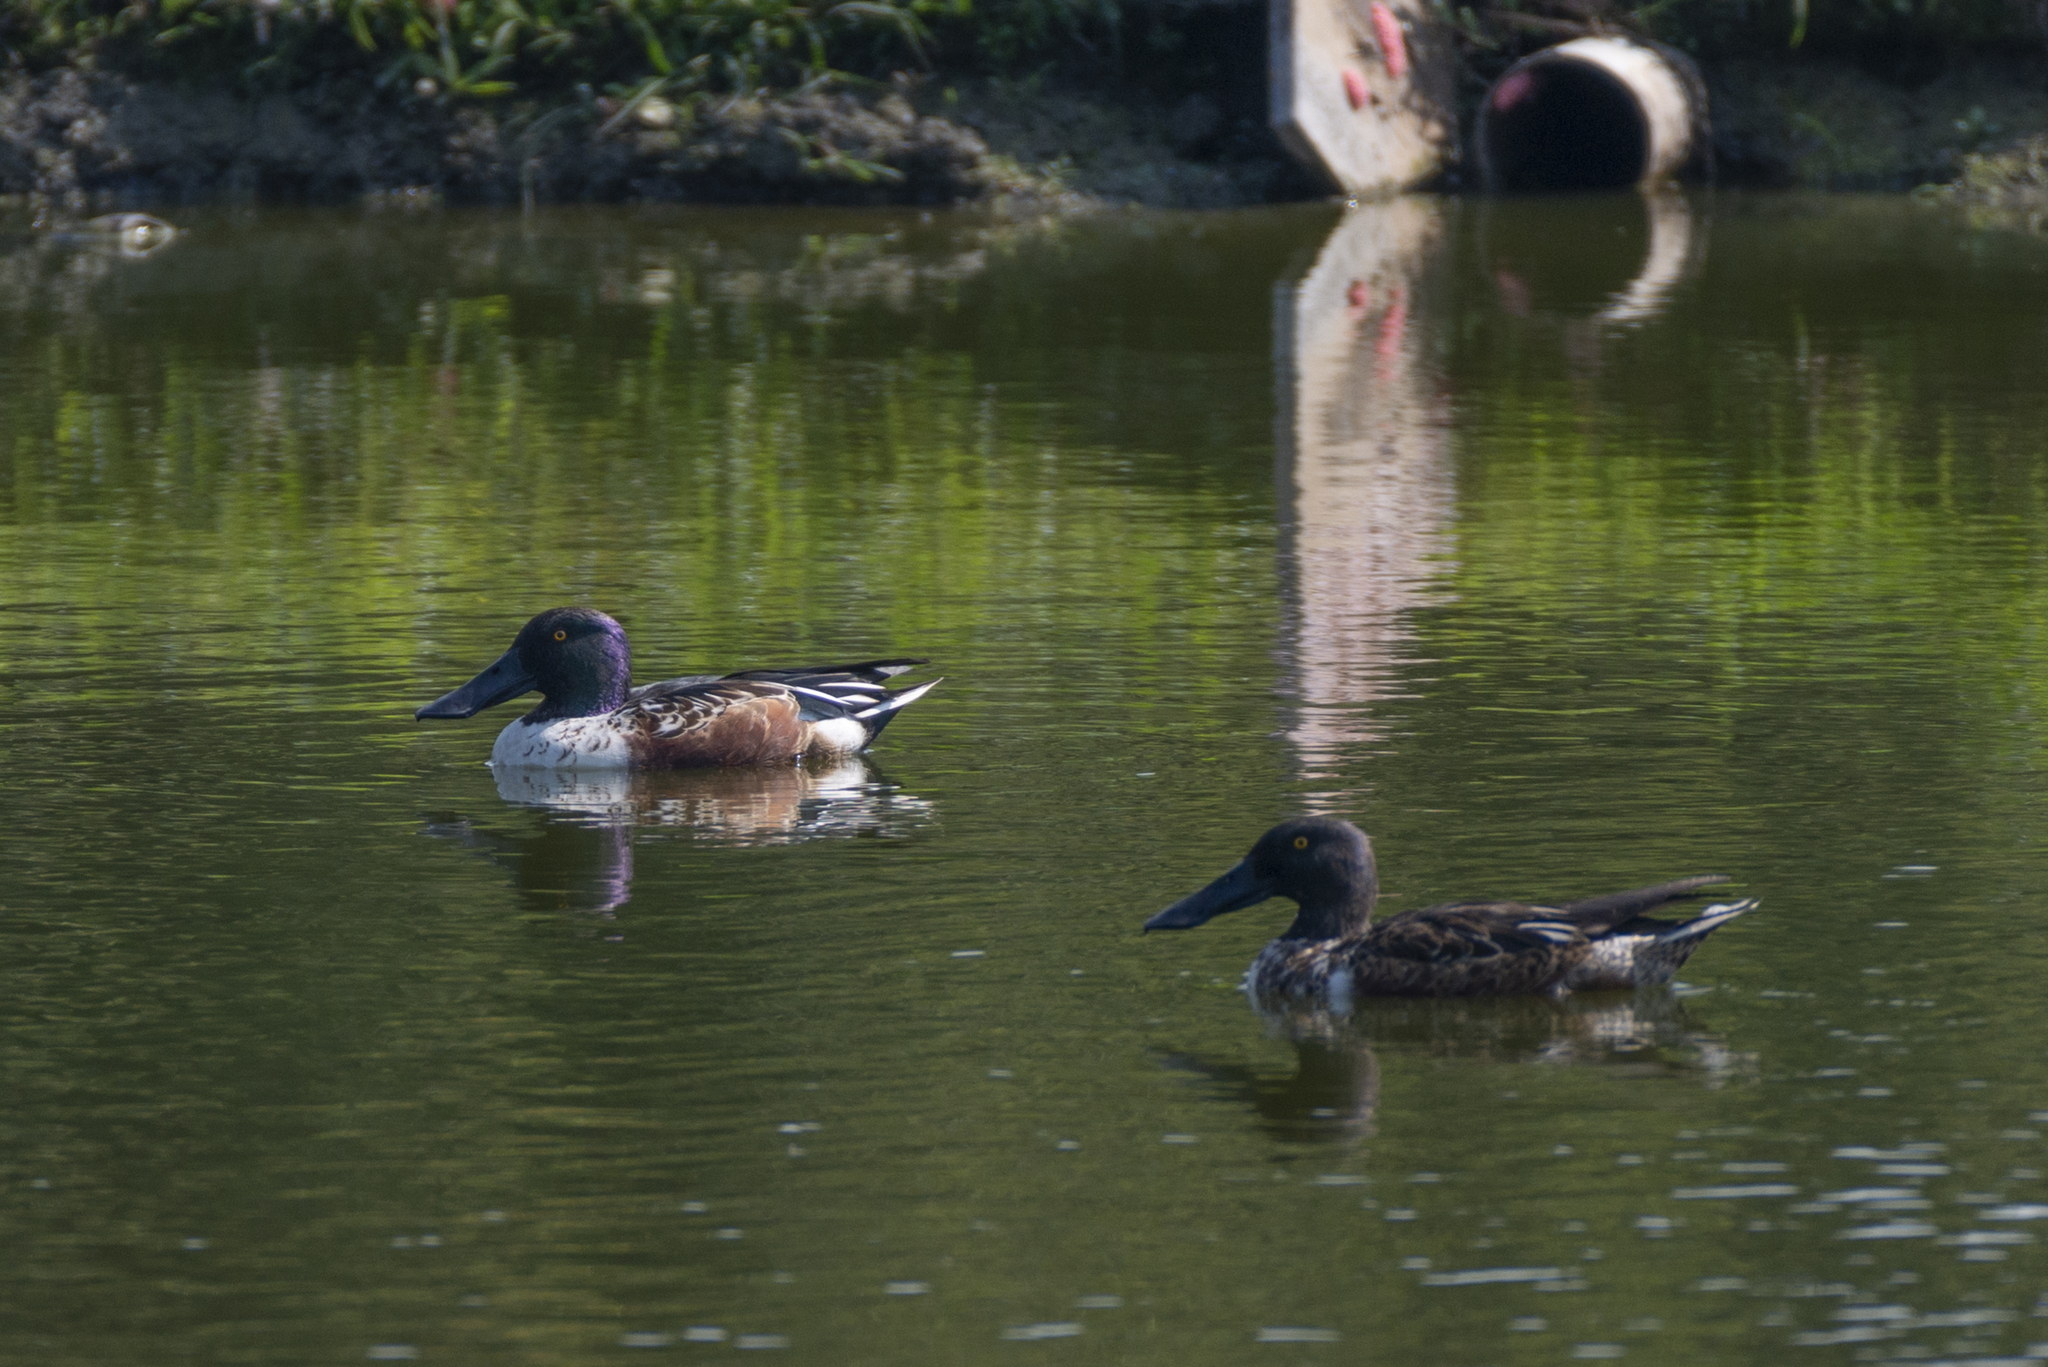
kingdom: Animalia
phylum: Chordata
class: Aves
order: Anseriformes
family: Anatidae
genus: Spatula
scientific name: Spatula clypeata
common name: Northern shoveler
